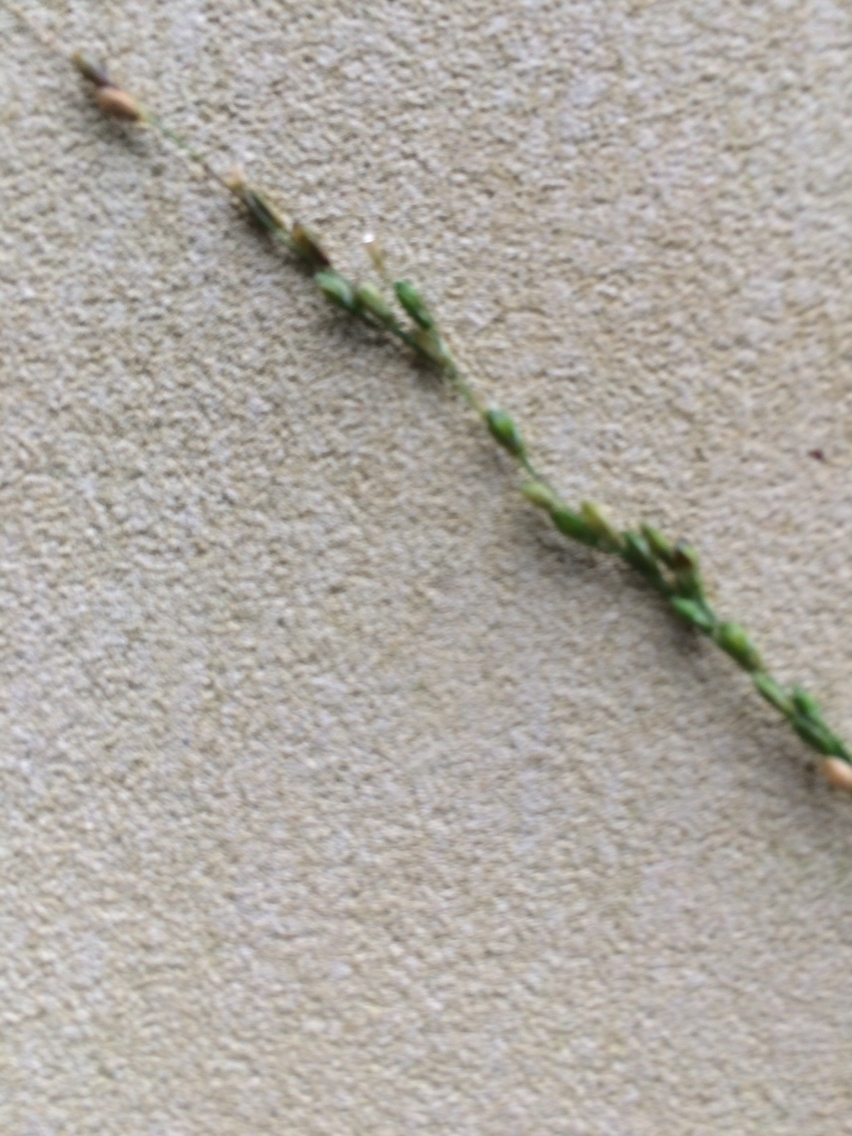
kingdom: Plantae
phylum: Tracheophyta
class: Liliopsida
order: Poales
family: Poaceae
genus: Ehrharta
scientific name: Ehrharta erecta
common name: Panic veldtgrass
